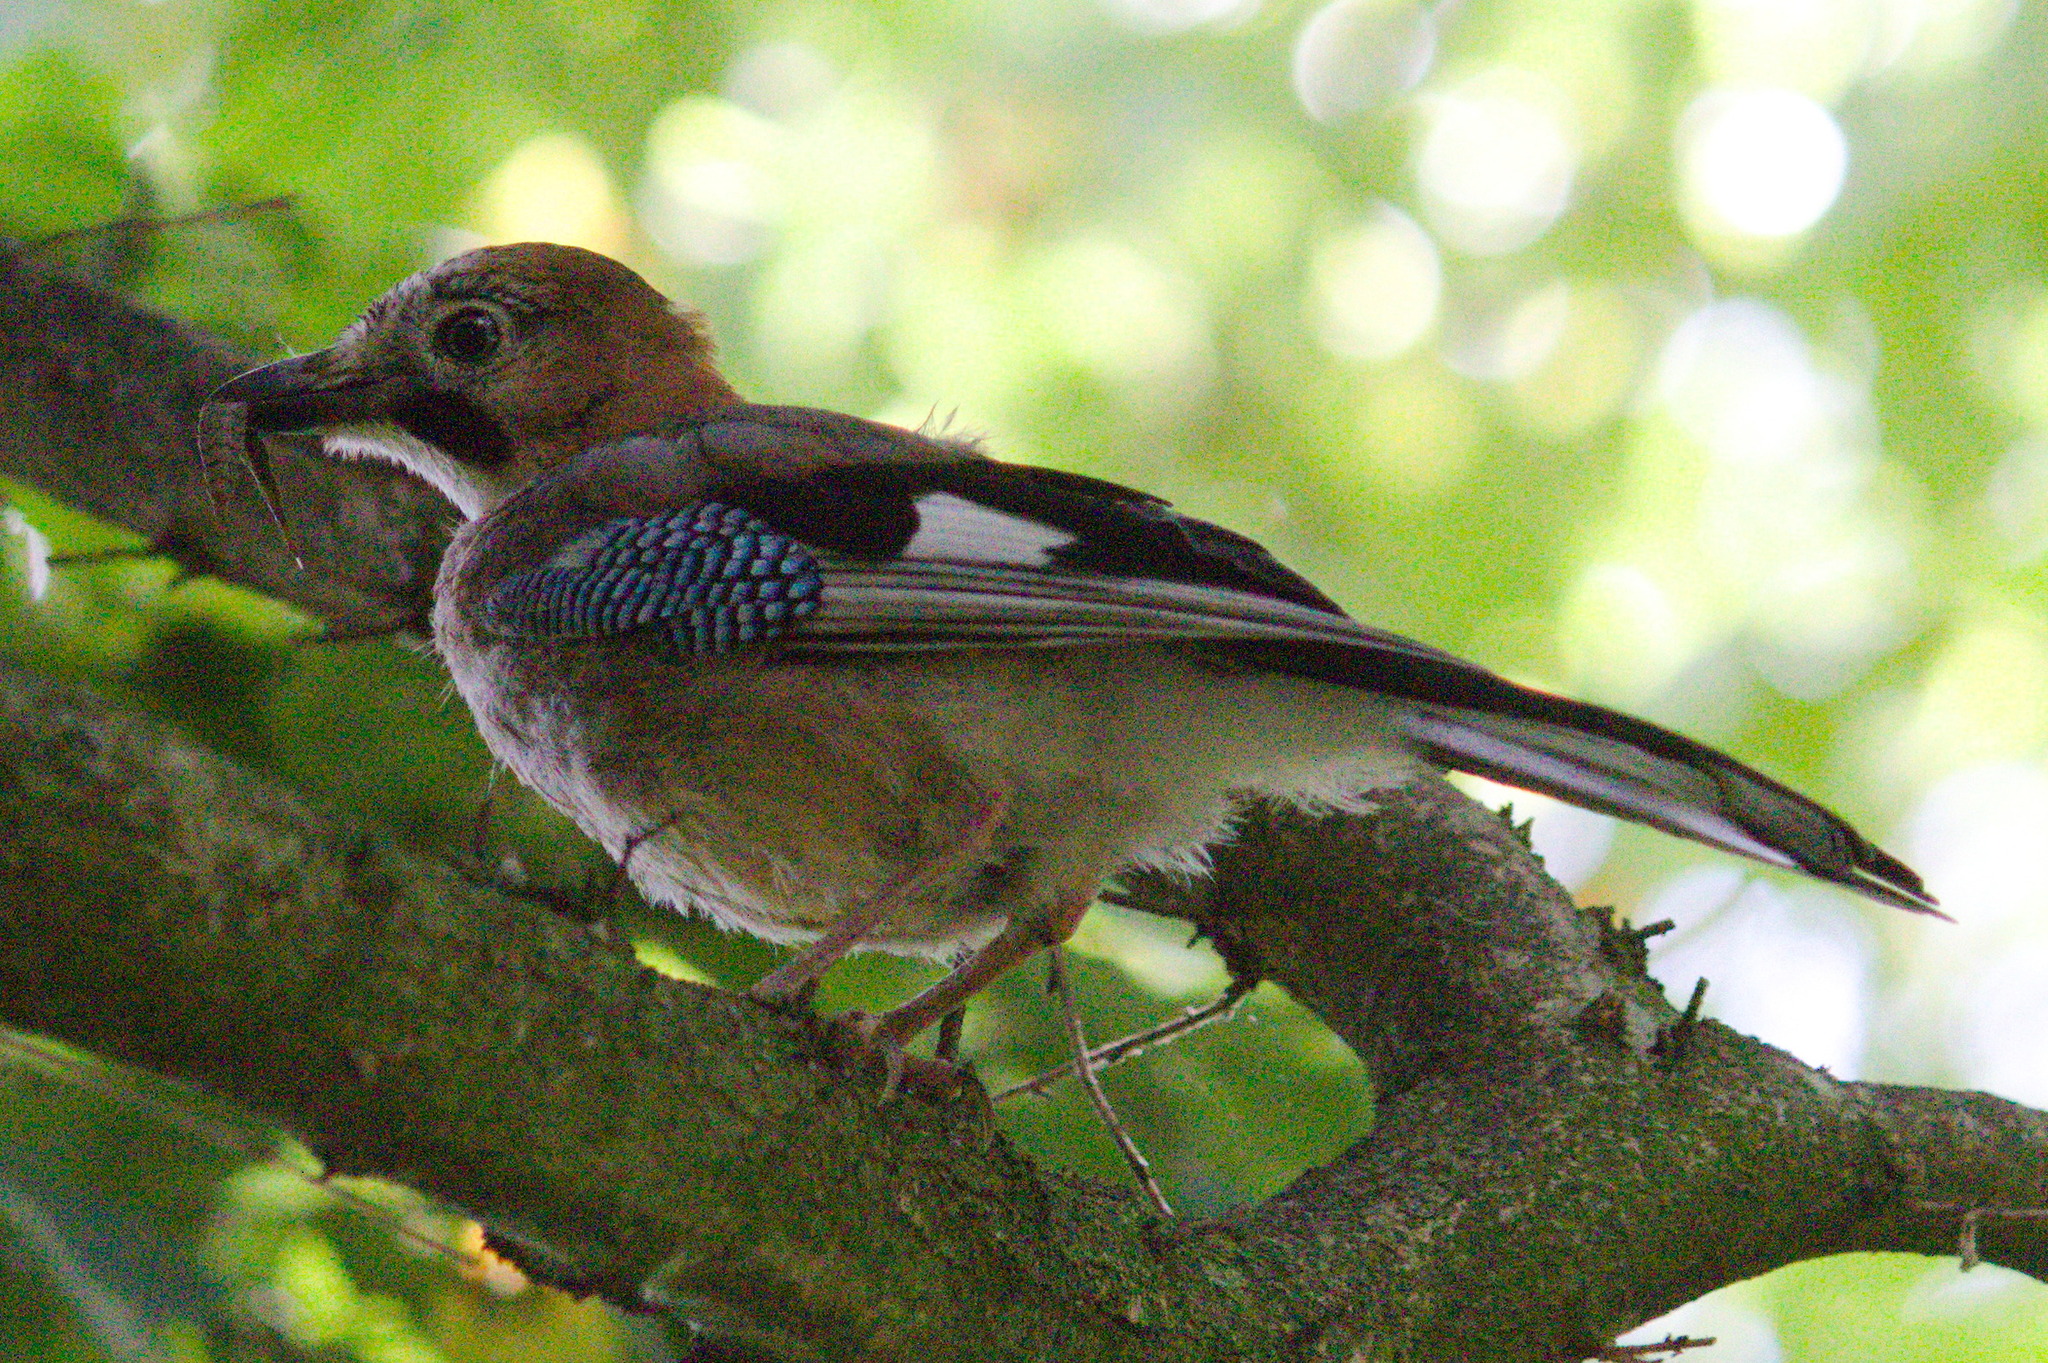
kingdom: Animalia
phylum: Chordata
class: Aves
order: Passeriformes
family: Corvidae
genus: Garrulus
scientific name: Garrulus glandarius
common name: Eurasian jay
